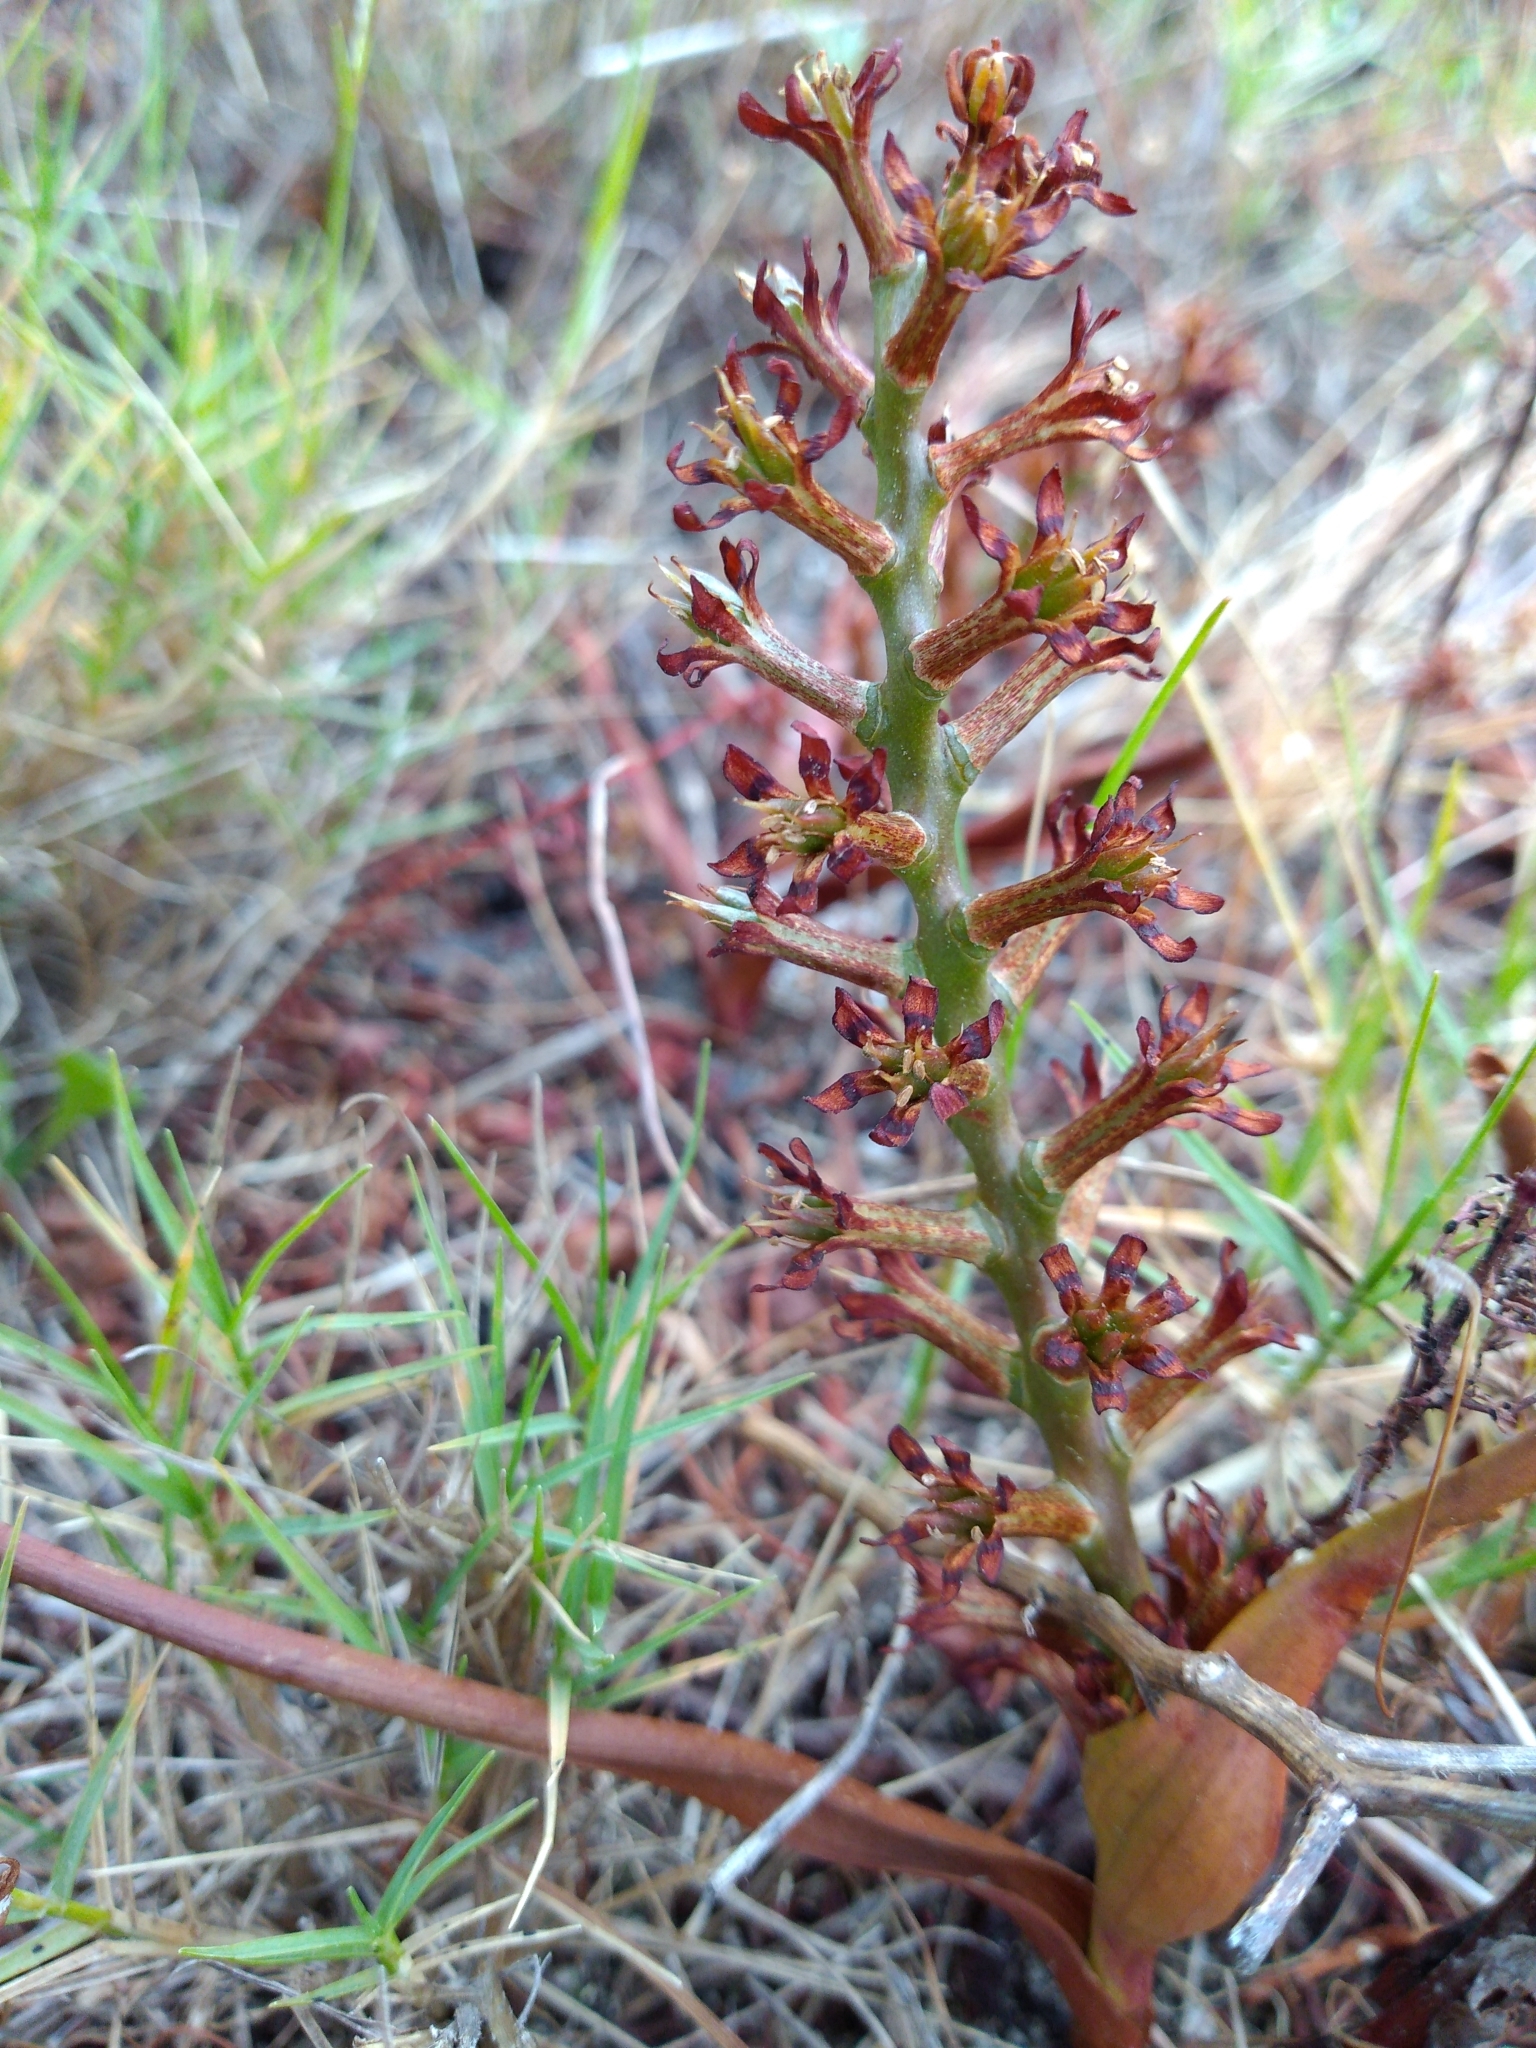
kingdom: Plantae
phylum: Tracheophyta
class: Liliopsida
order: Liliales
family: Colchicaceae
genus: Wurmbea
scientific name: Wurmbea inusta
